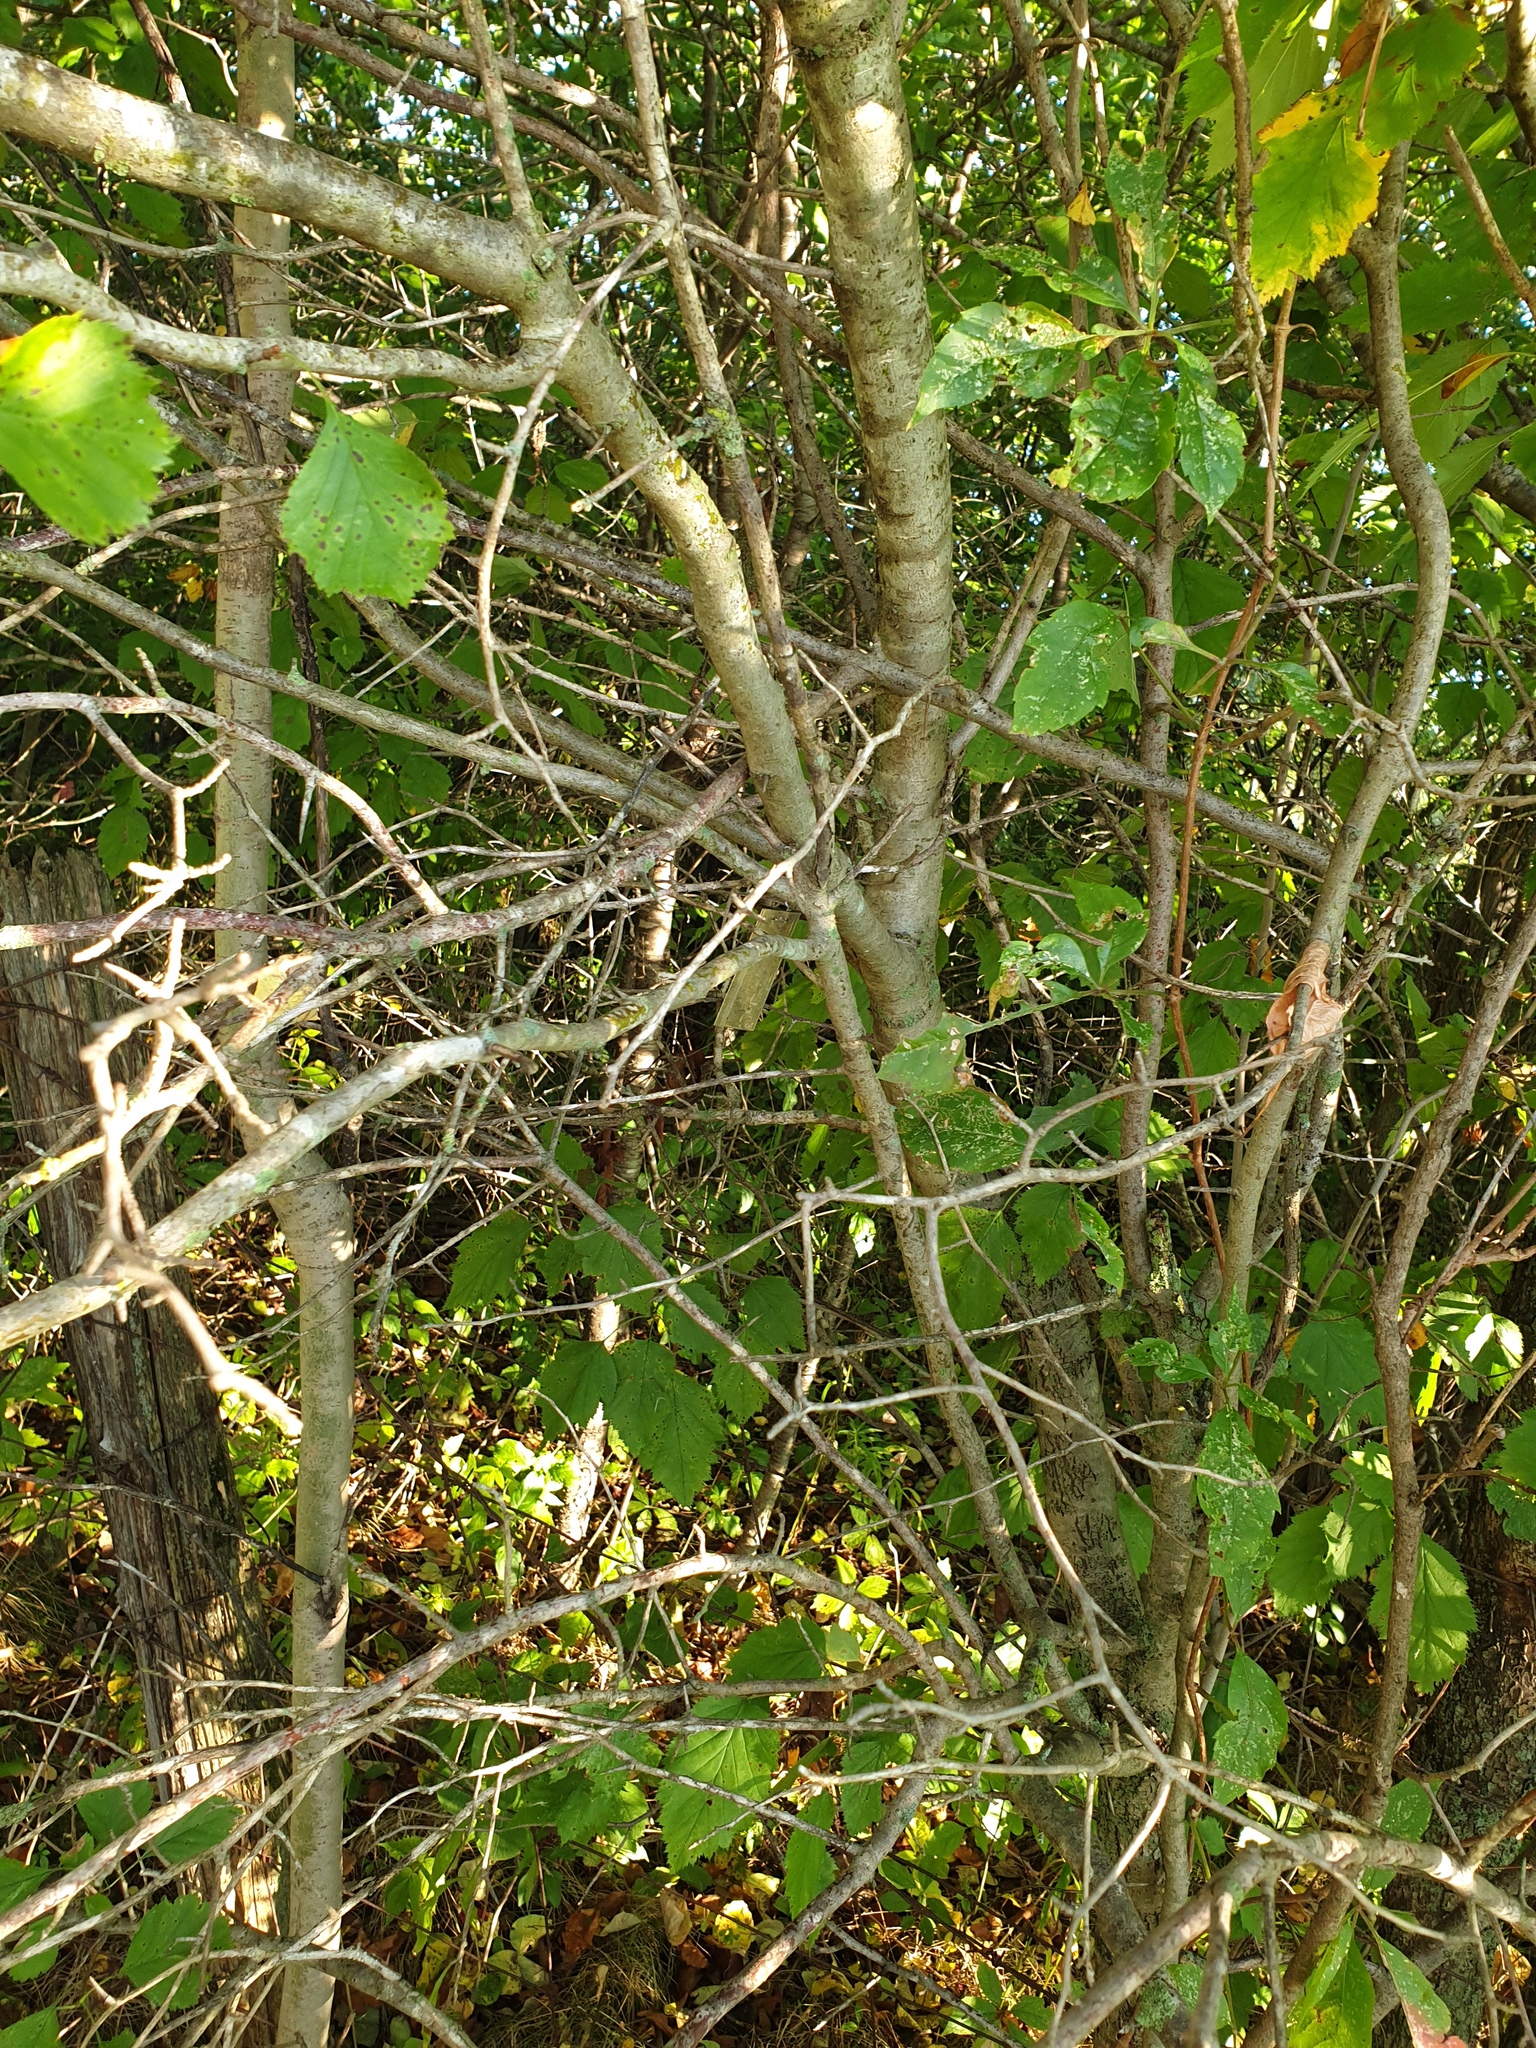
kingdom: Plantae
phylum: Tracheophyta
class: Magnoliopsida
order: Rosales
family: Rosaceae
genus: Crataegus
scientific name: Crataegus chrysocarpa
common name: Fire-berry hawthorn
